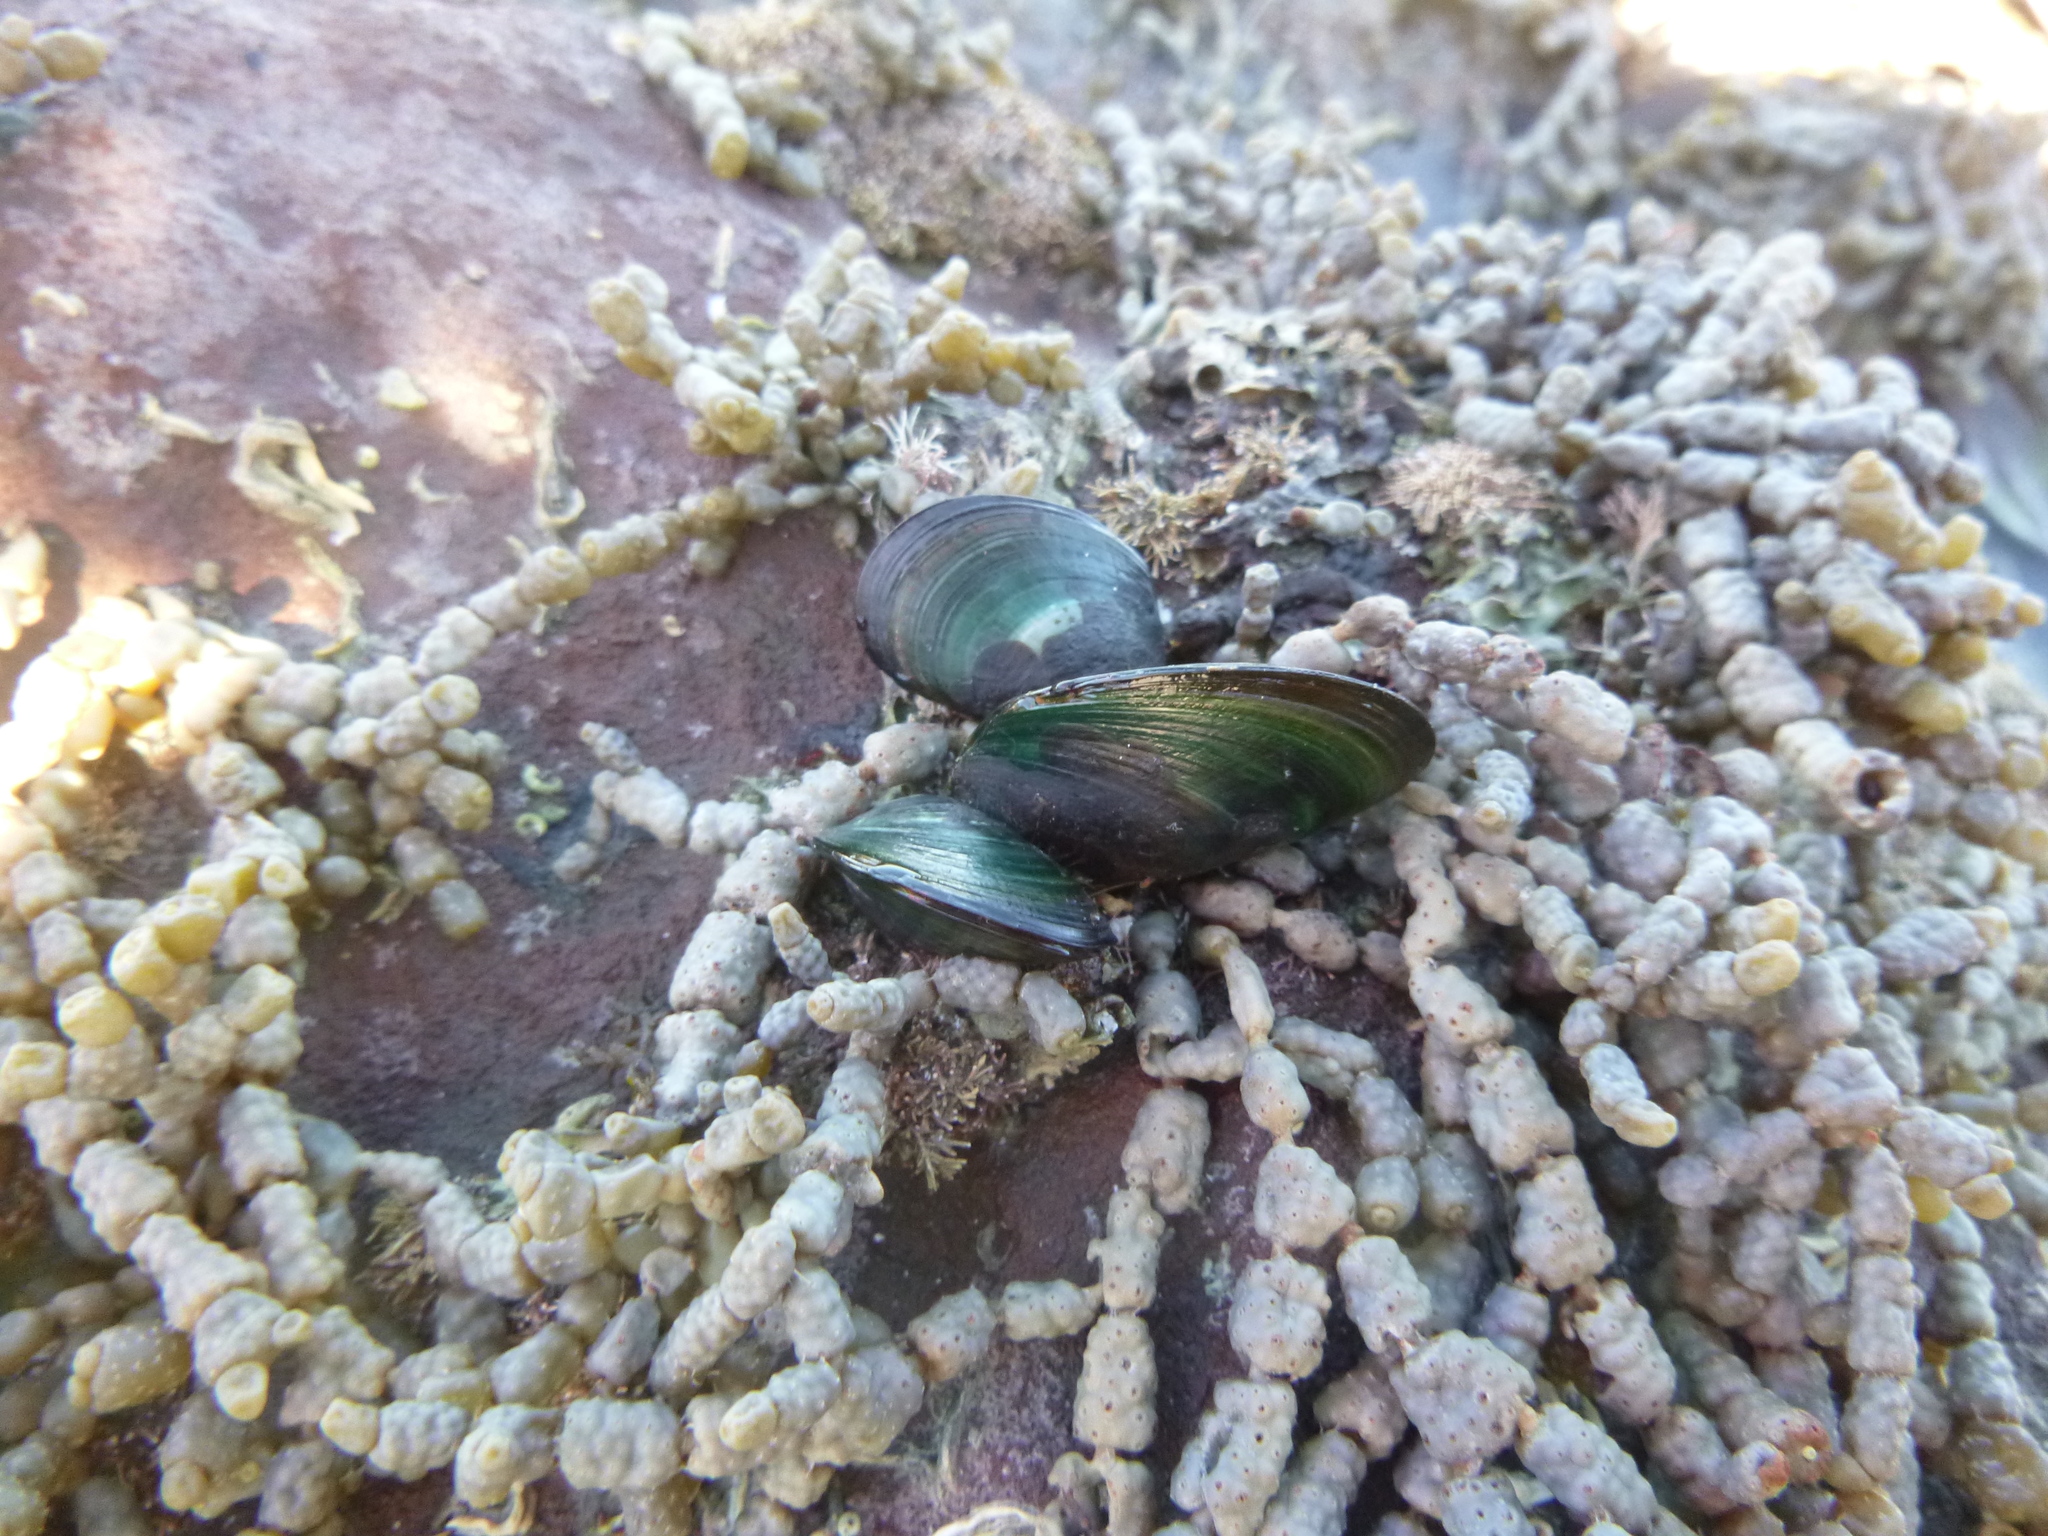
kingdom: Animalia
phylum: Mollusca
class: Bivalvia
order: Mytilida
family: Mytilidae
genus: Perna
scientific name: Perna canaliculus
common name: New zealand greenshelltm
